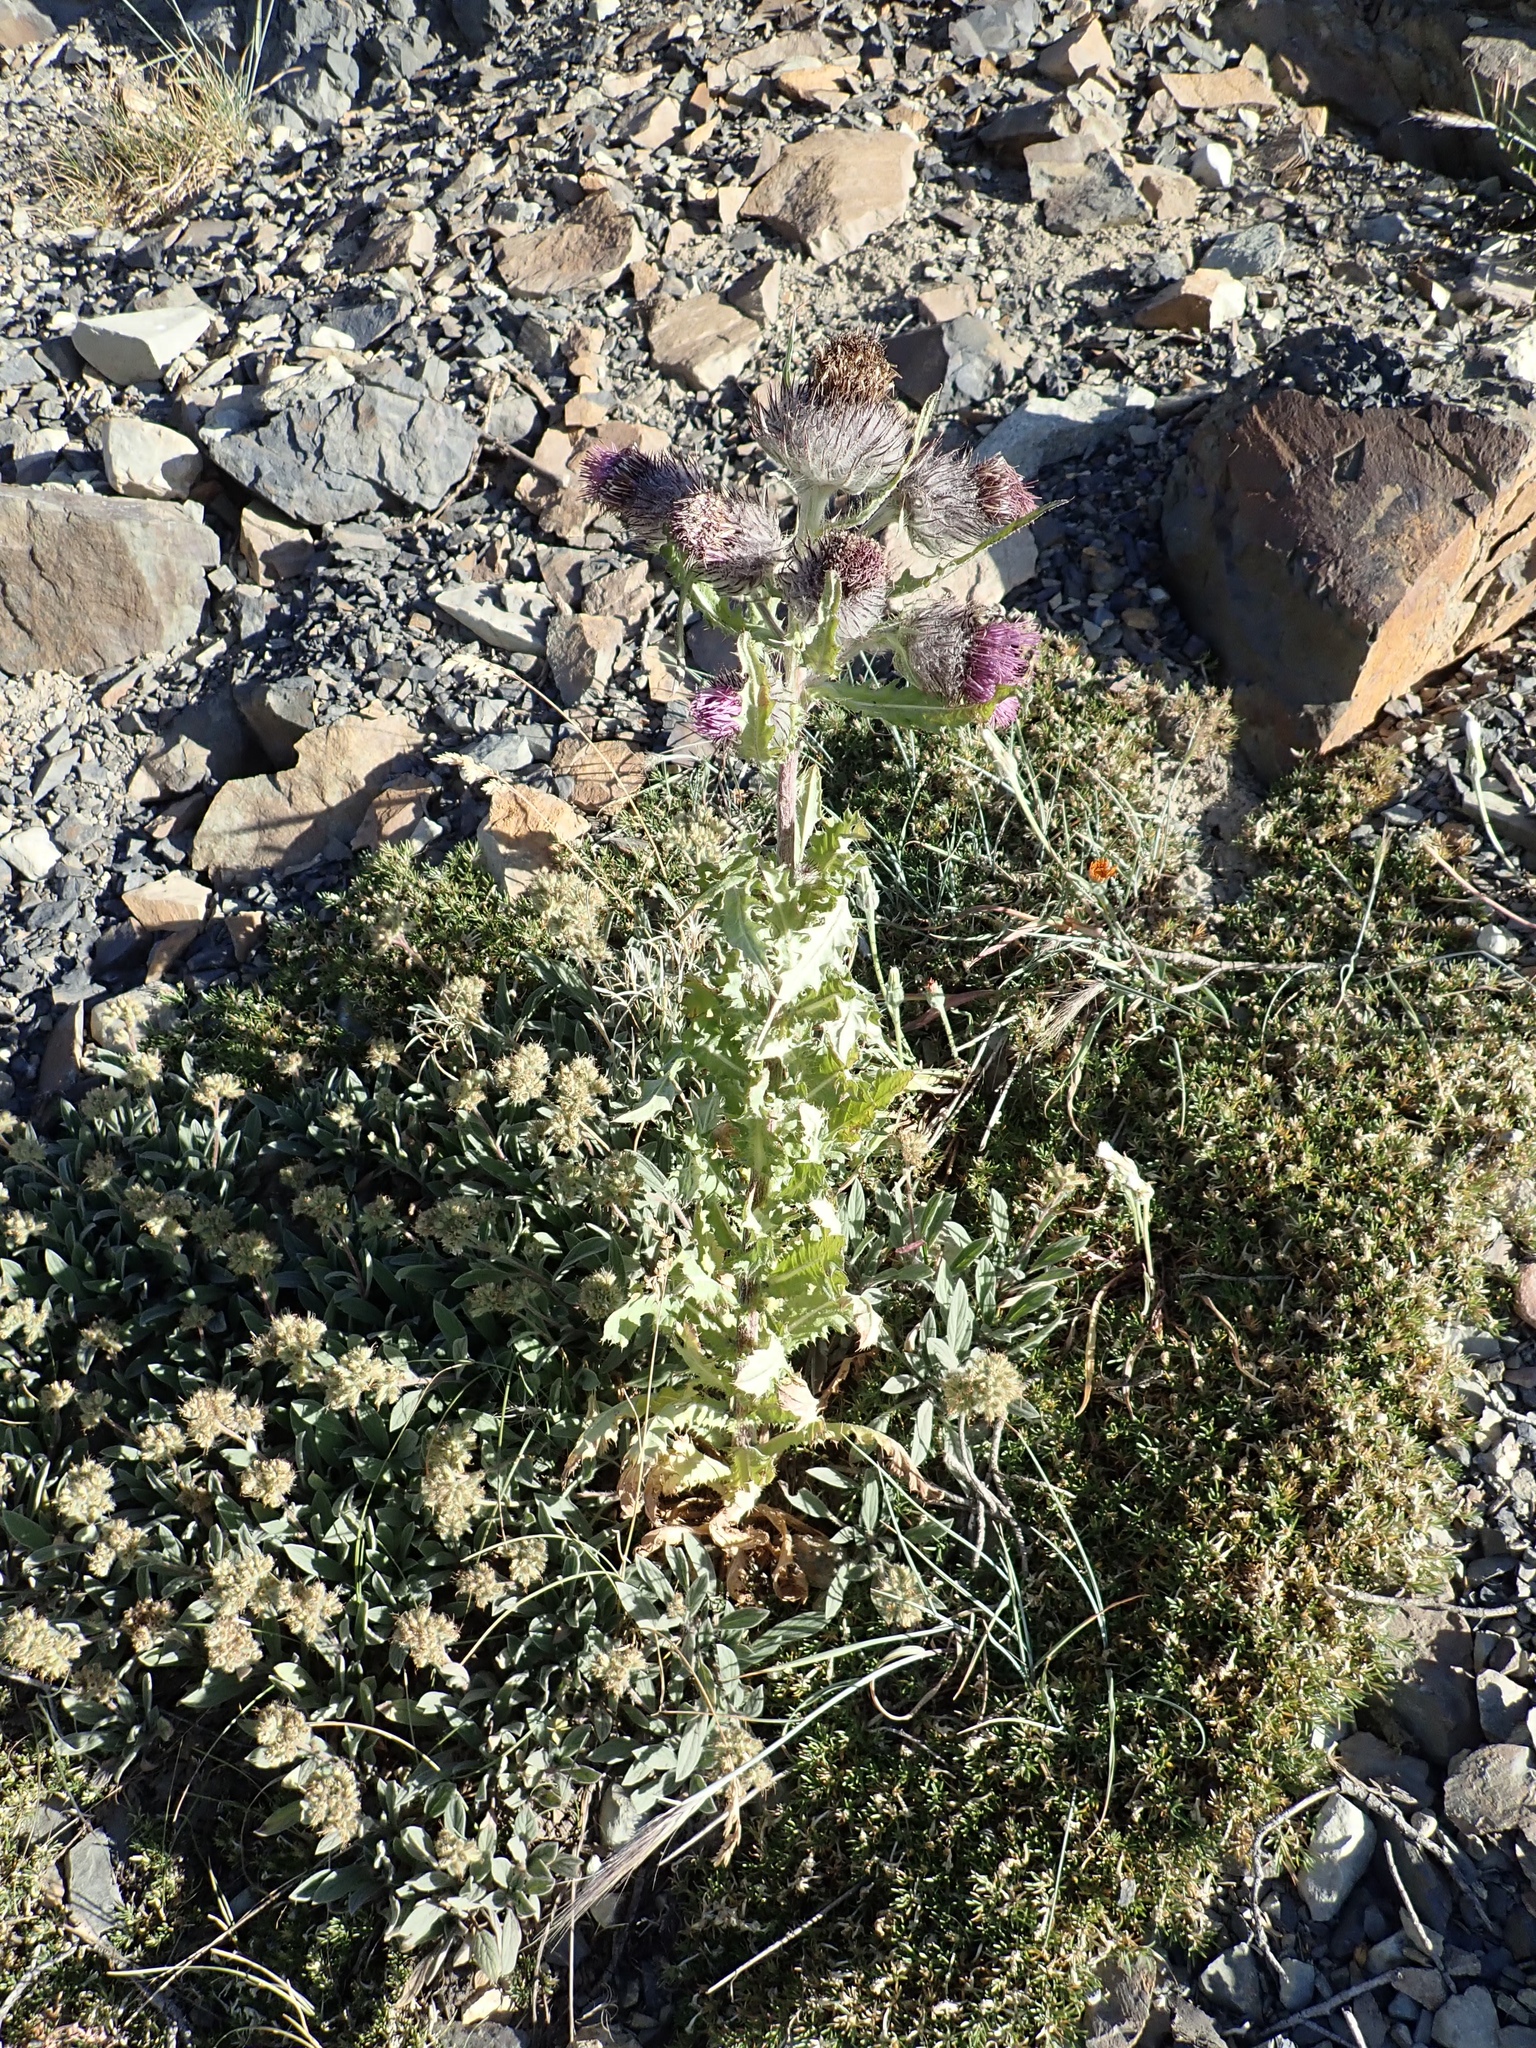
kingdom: Plantae
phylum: Tracheophyta
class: Magnoliopsida
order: Asterales
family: Asteraceae
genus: Cirsium
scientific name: Cirsium edule
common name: Indian thistle
